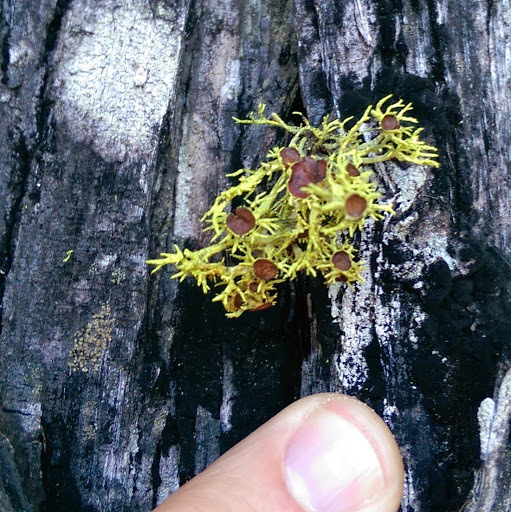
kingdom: Fungi
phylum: Ascomycota
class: Lecanoromycetes
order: Lecanorales
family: Parmeliaceae
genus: Letharia
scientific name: Letharia columbiana
